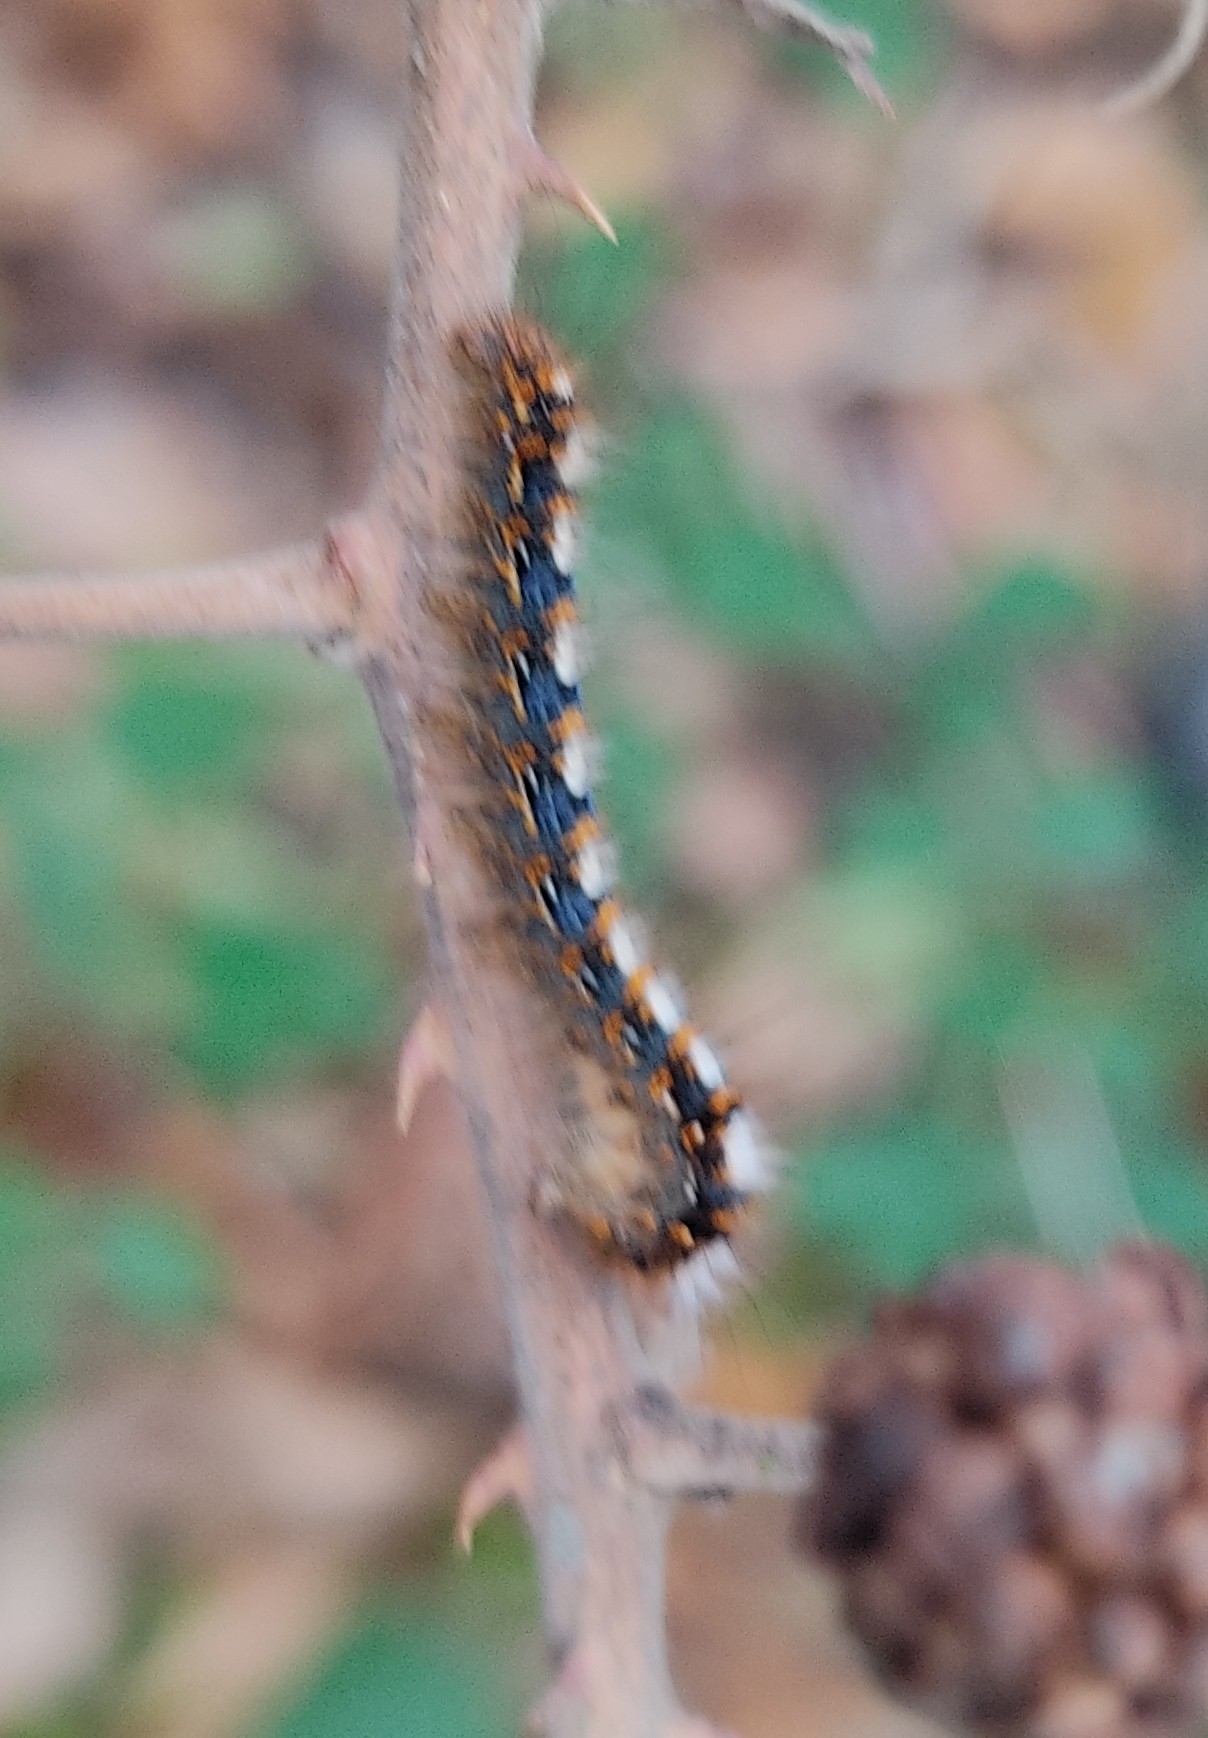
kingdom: Animalia
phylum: Arthropoda
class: Insecta
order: Lepidoptera
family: Lasiocampidae
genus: Lasiocampa
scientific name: Lasiocampa quercus
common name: Oak eggar
